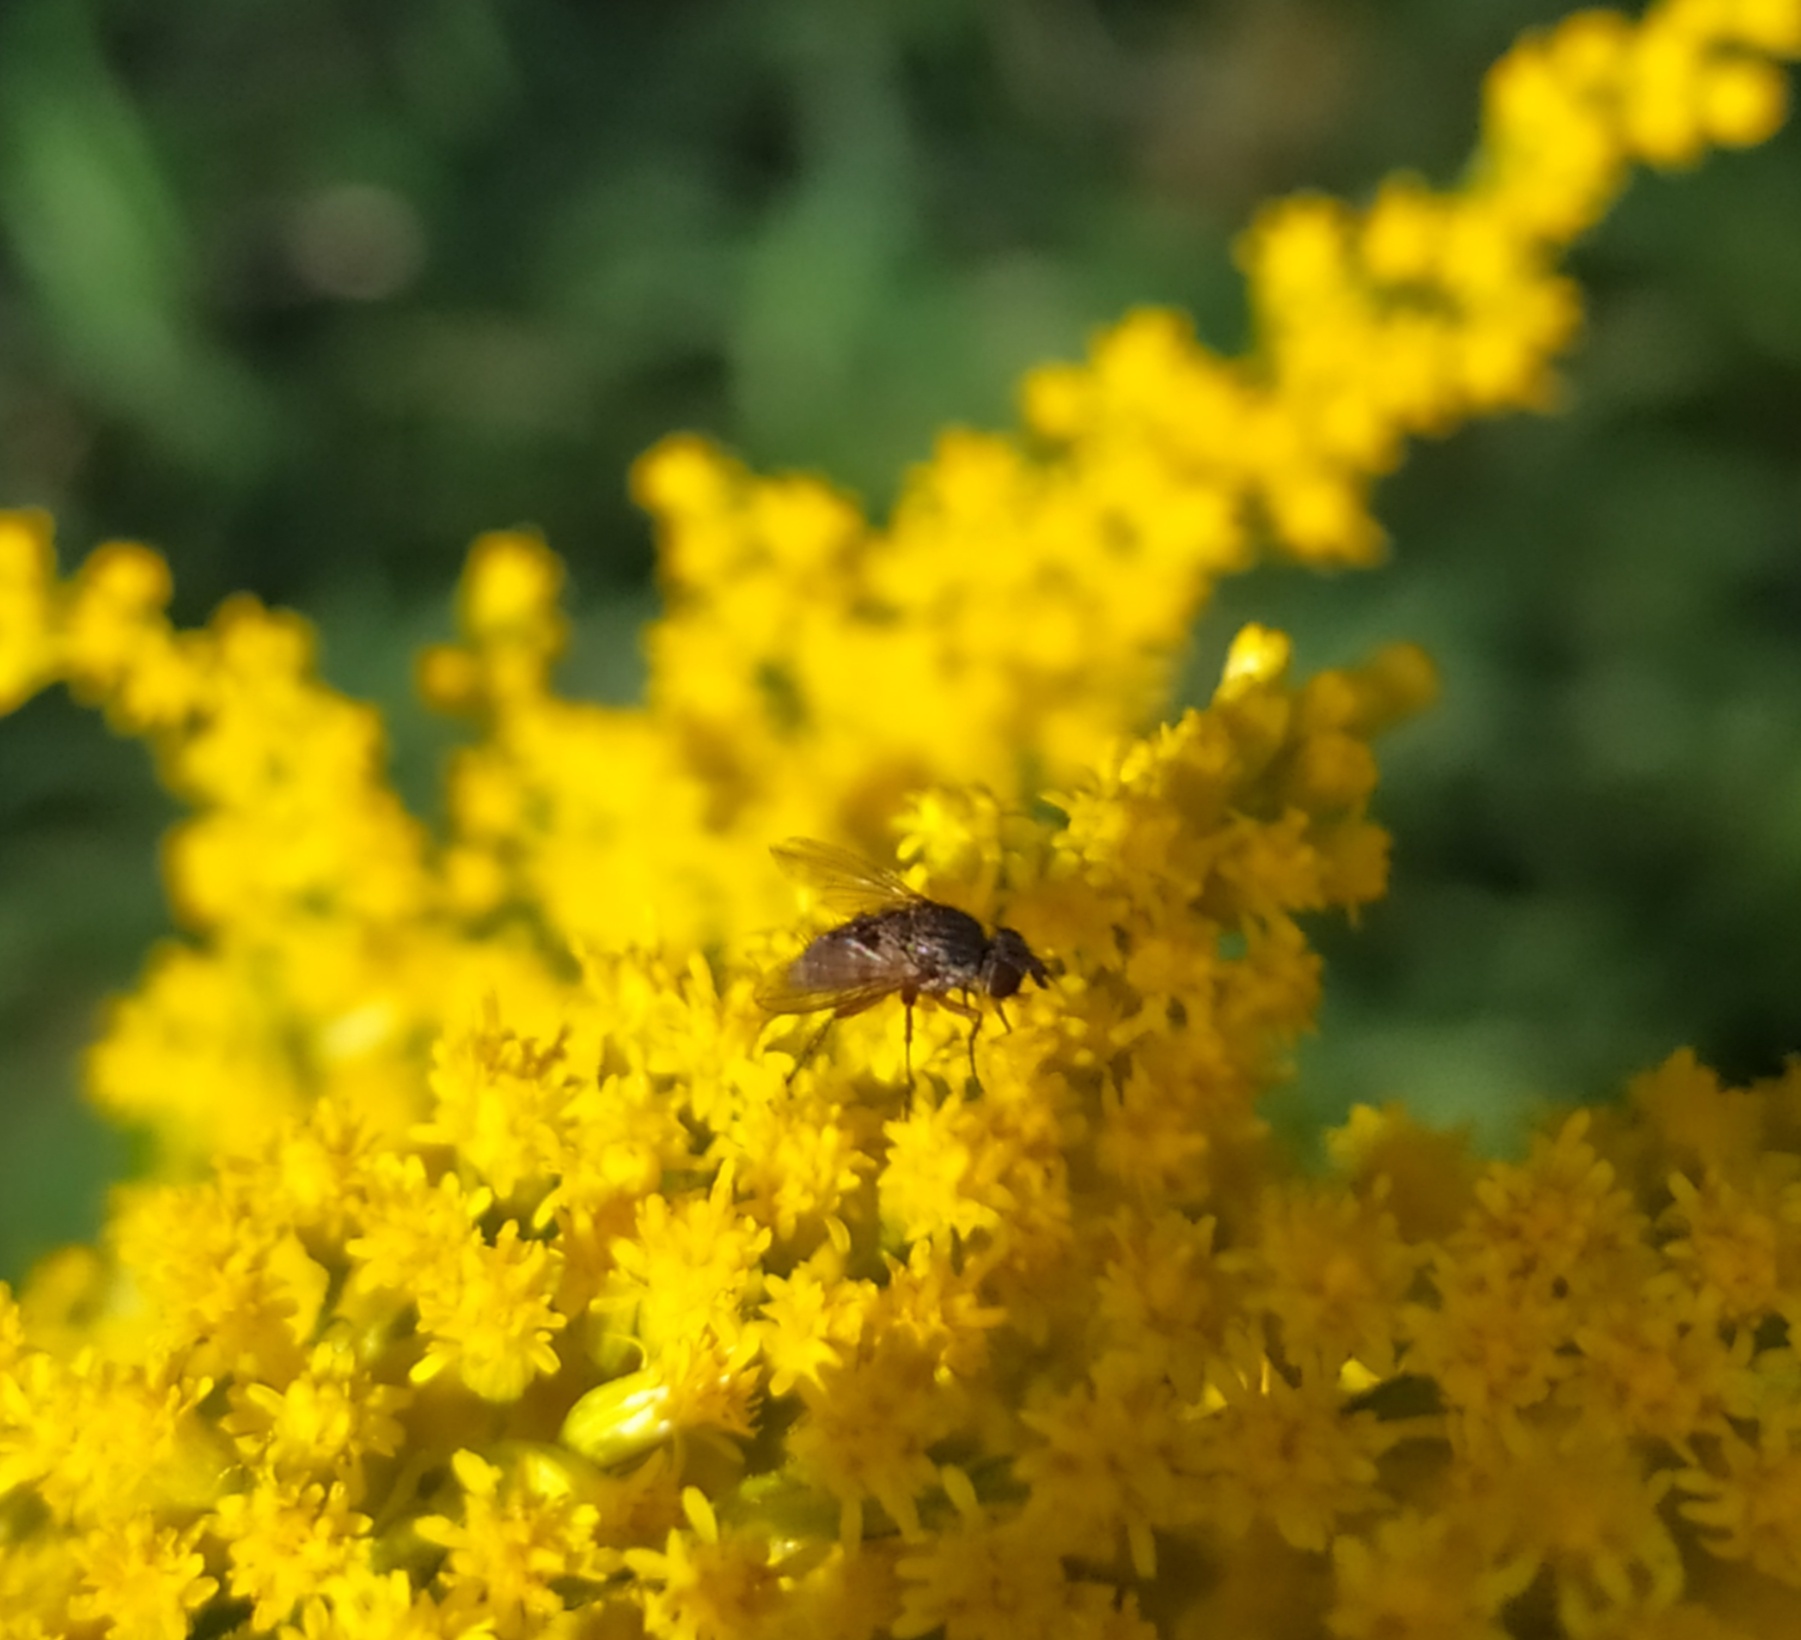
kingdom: Animalia
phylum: Arthropoda
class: Insecta
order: Diptera
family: Tachinidae
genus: Siphona
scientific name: Siphona
